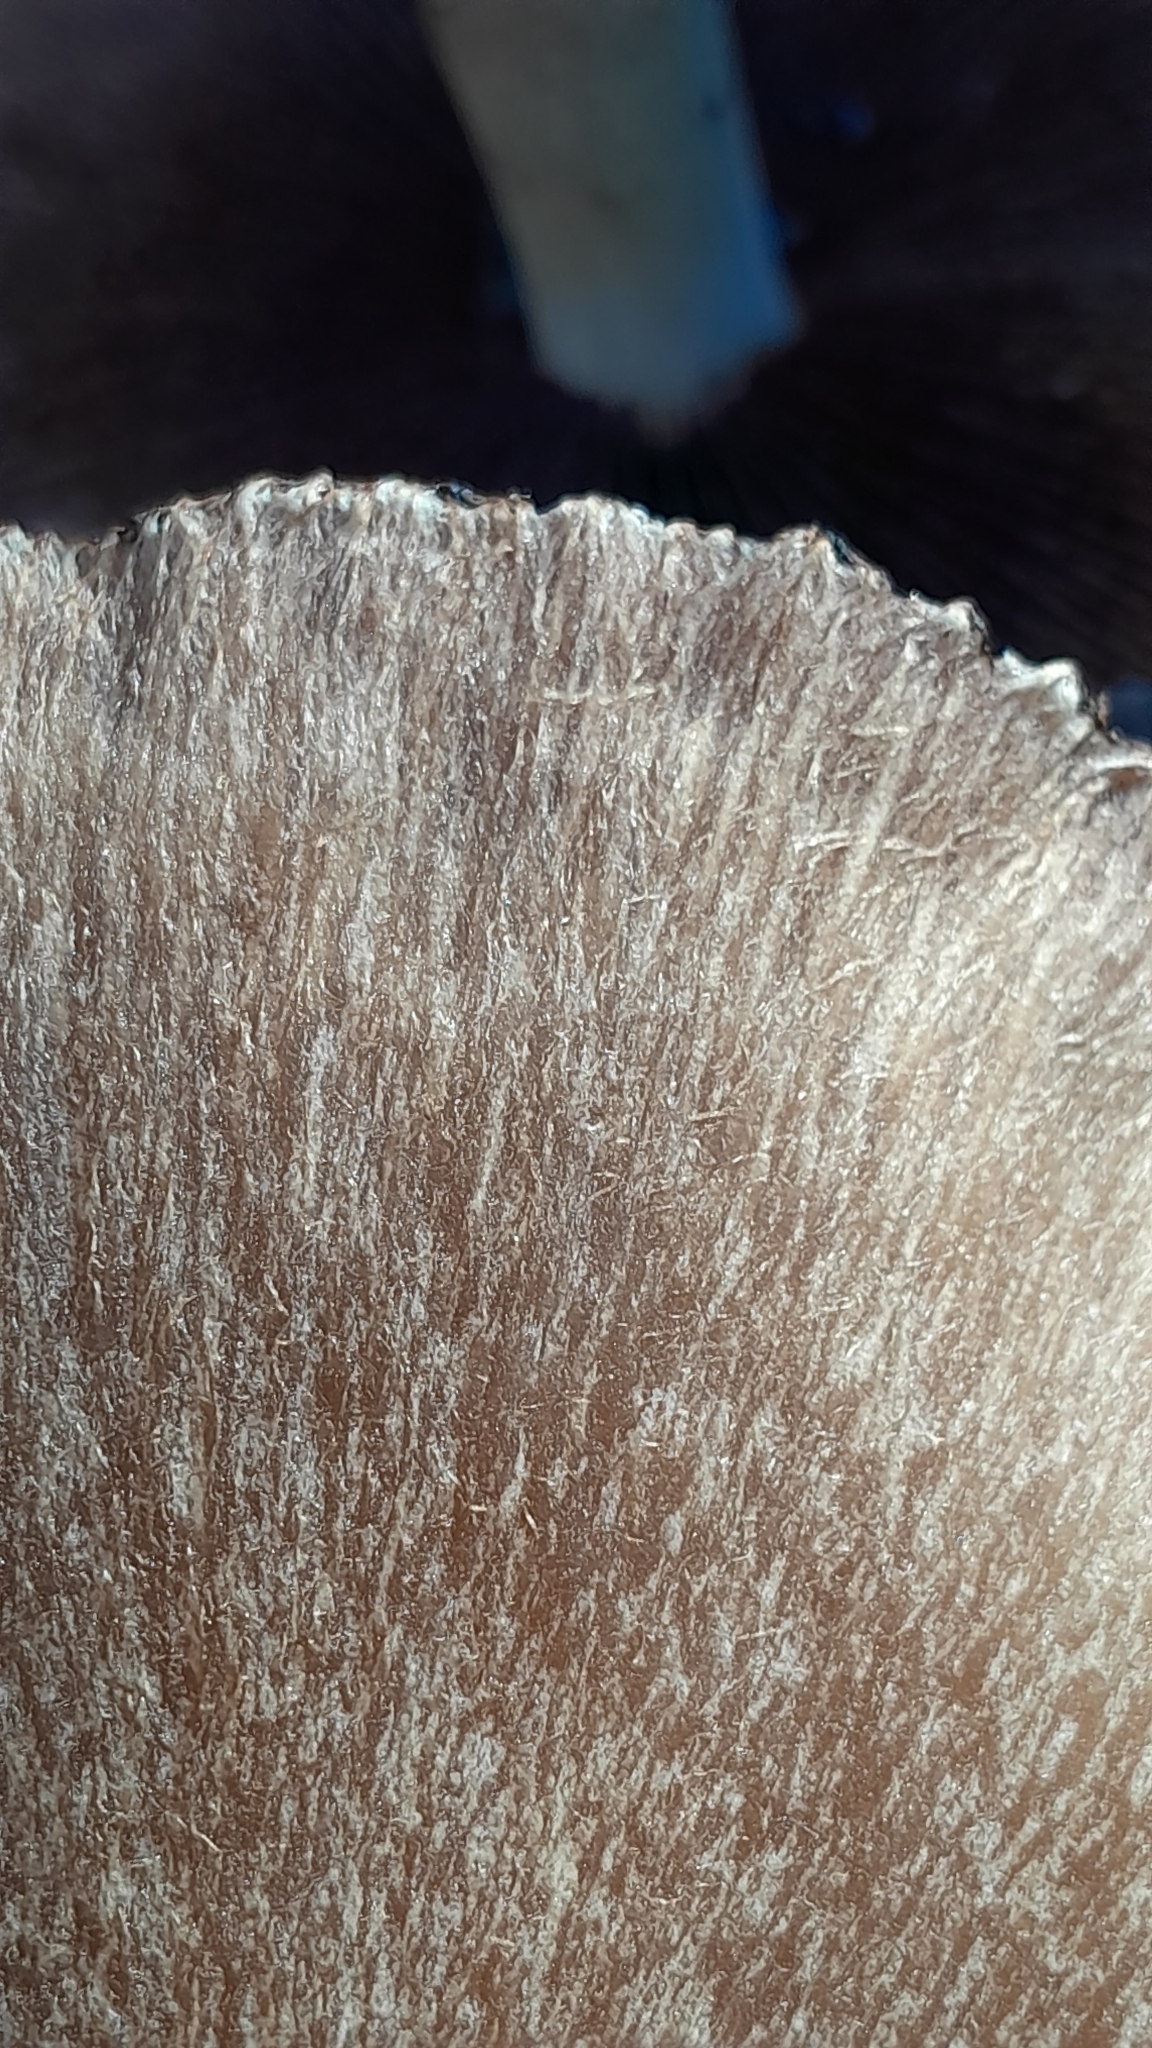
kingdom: Fungi
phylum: Basidiomycota
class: Agaricomycetes
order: Agaricales
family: Psathyrellaceae
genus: Lacrymaria
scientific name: Lacrymaria lacrymabunda
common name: Weeping widow
